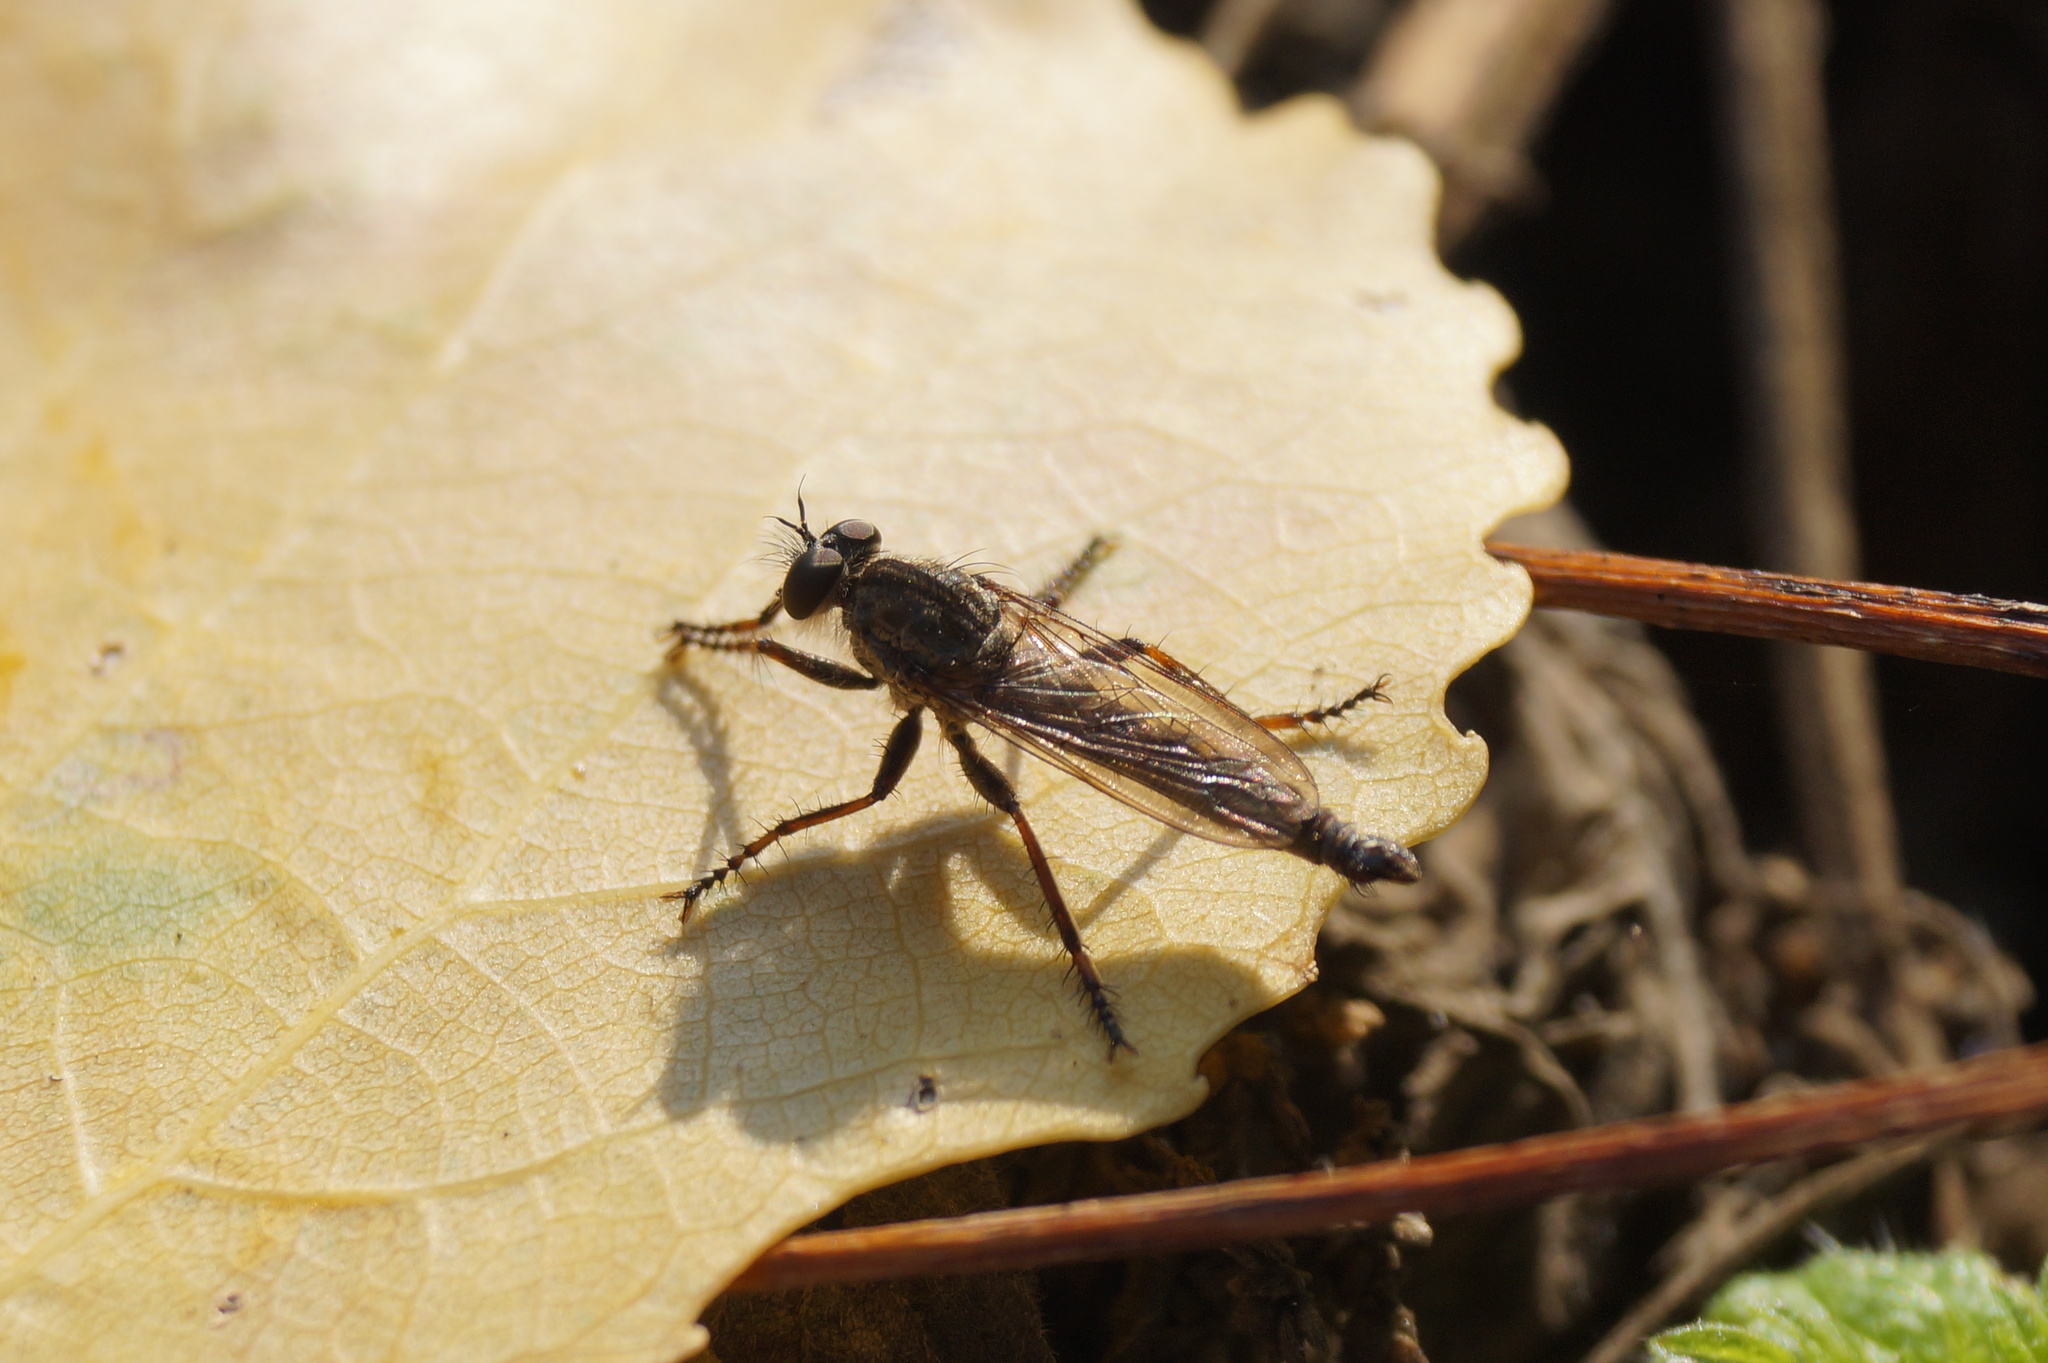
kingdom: Animalia
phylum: Arthropoda
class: Insecta
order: Diptera
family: Asilidae
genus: Machimus
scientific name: Machimus atricapillus
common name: Kite-tailed robberfly
